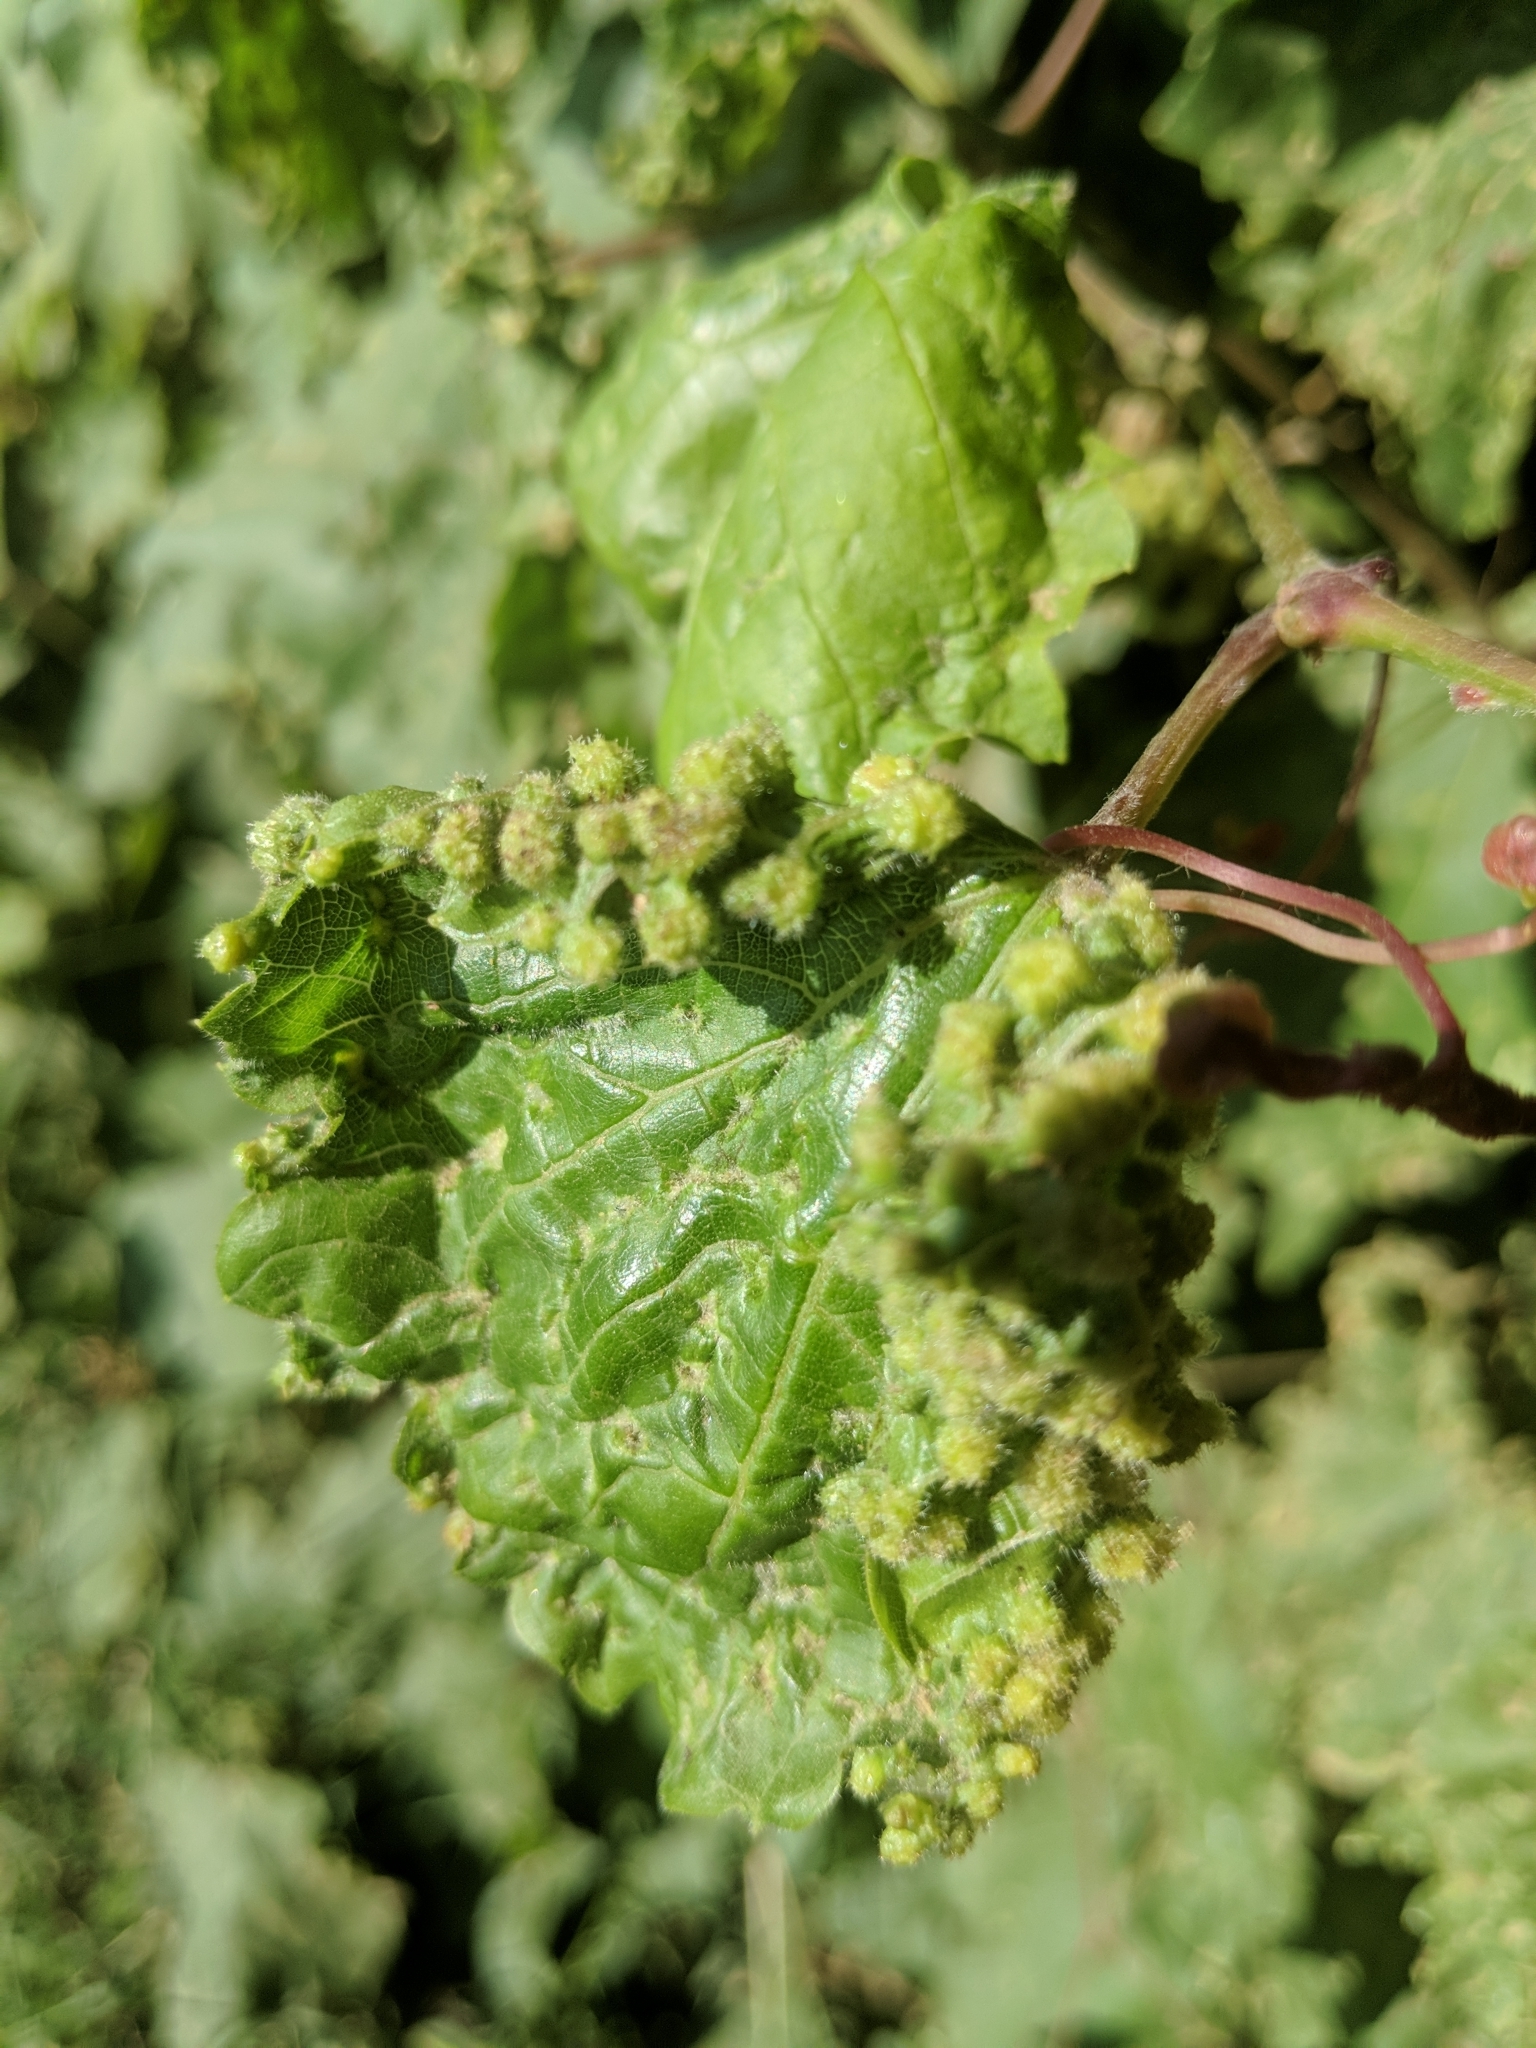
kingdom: Animalia
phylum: Arthropoda
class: Insecta
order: Hemiptera
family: Phylloxeridae
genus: Daktulosphaira
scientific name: Daktulosphaira vitifoliae
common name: Grape phylloxera
